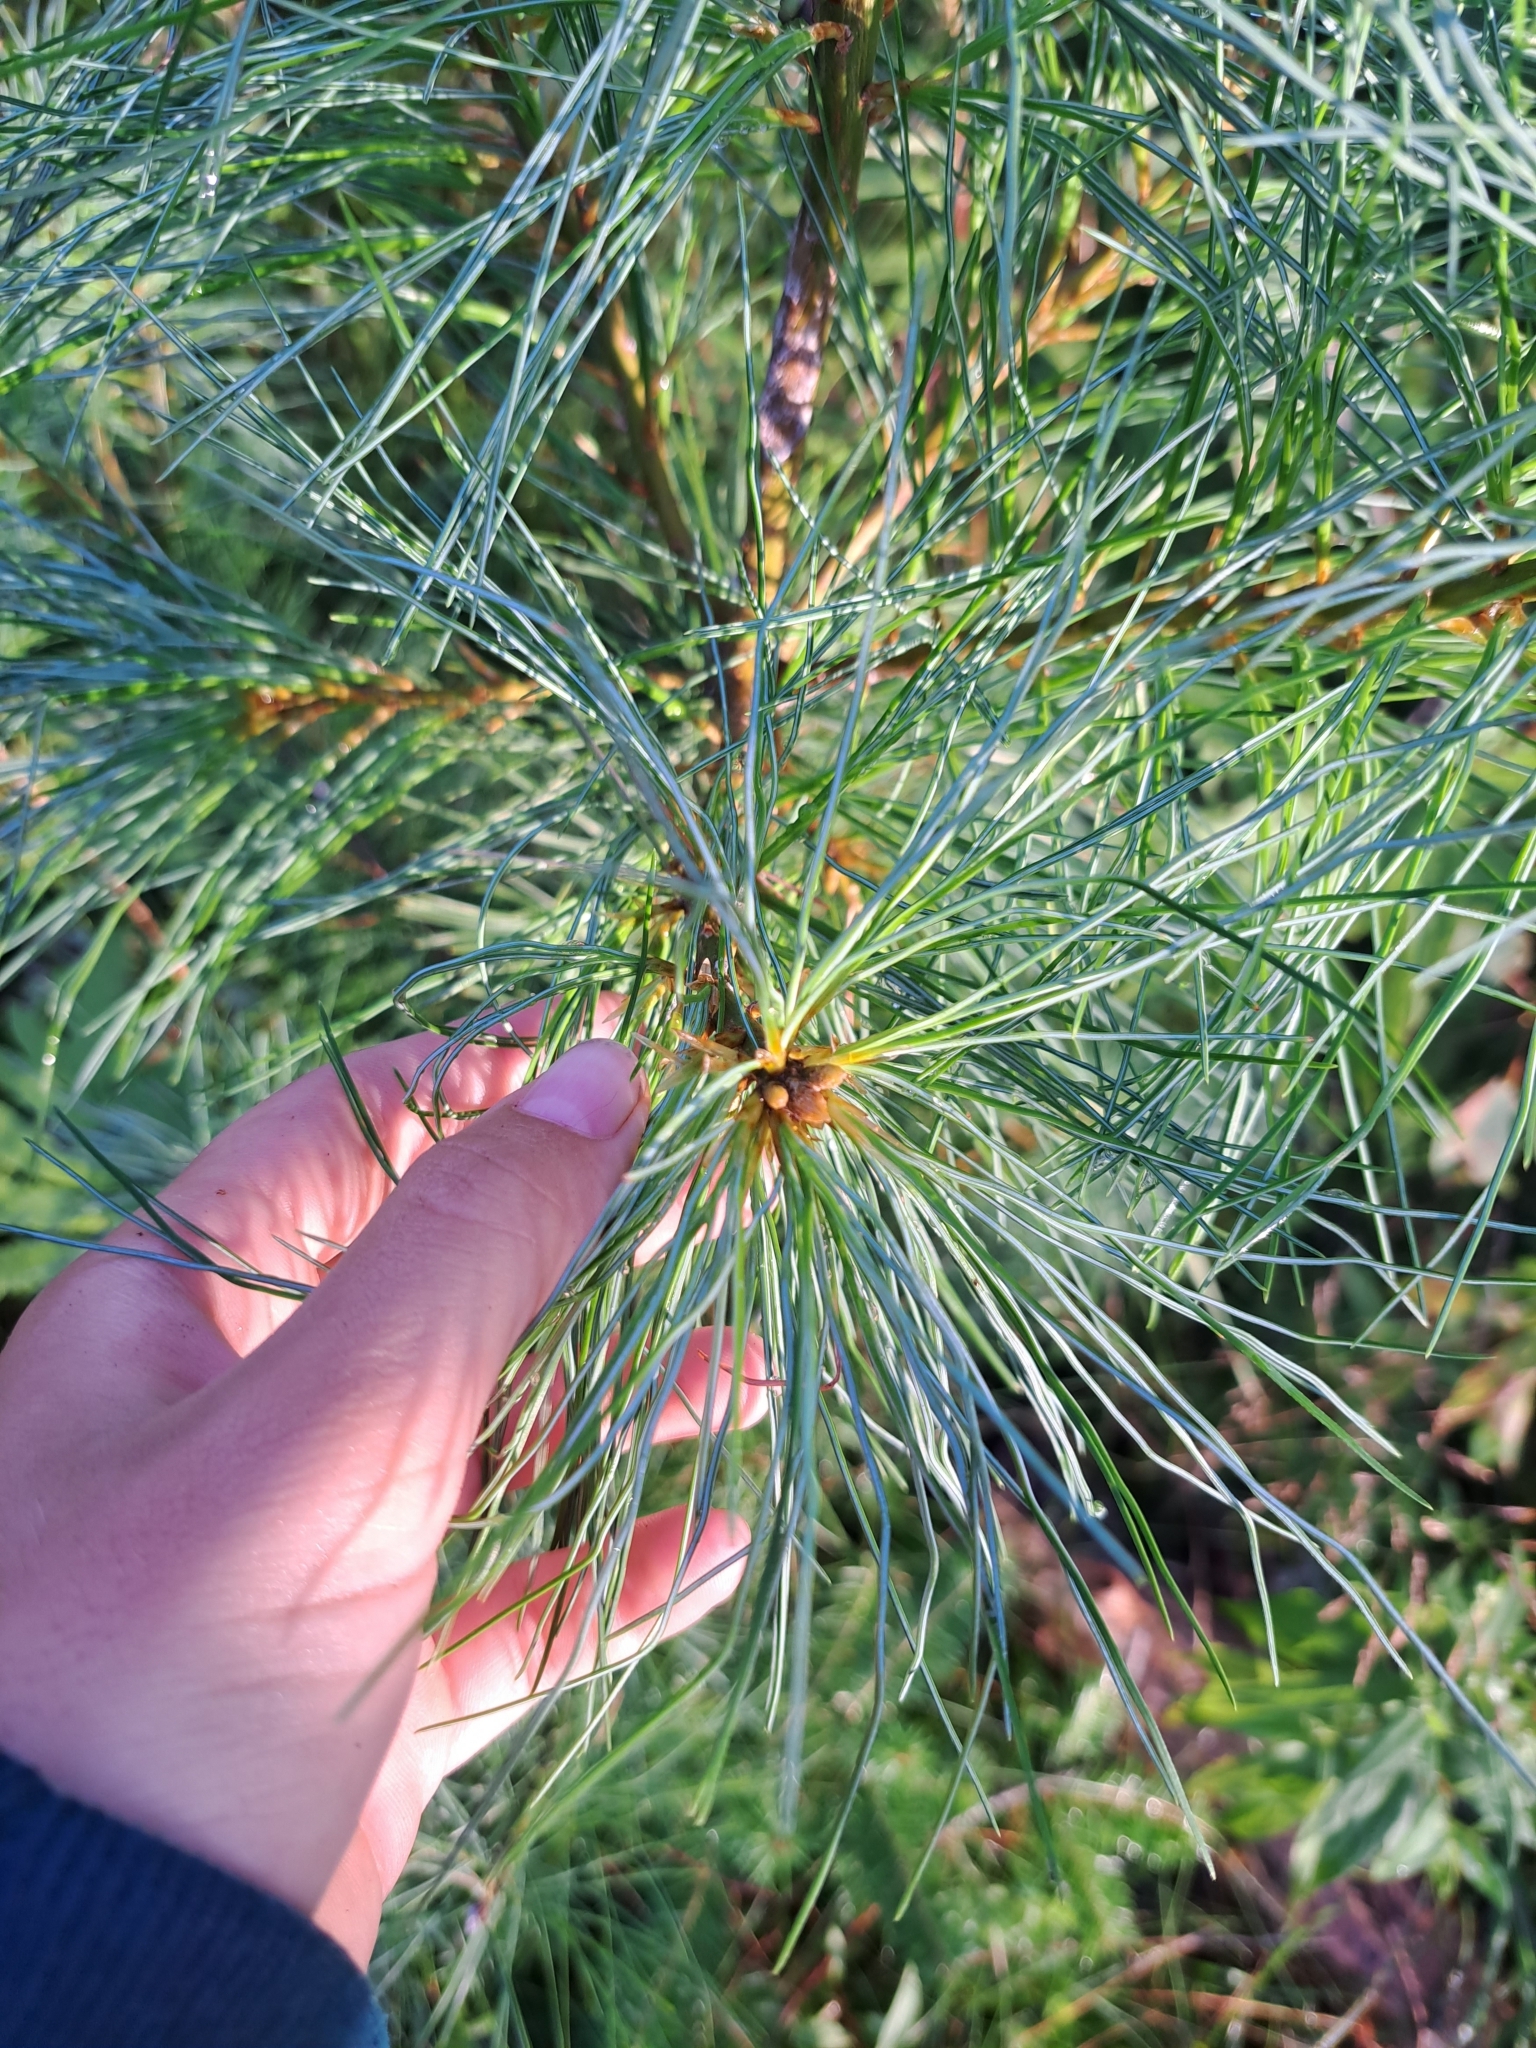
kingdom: Plantae
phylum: Tracheophyta
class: Pinopsida
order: Pinales
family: Pinaceae
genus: Pinus
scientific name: Pinus strobus
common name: Weymouth pine
